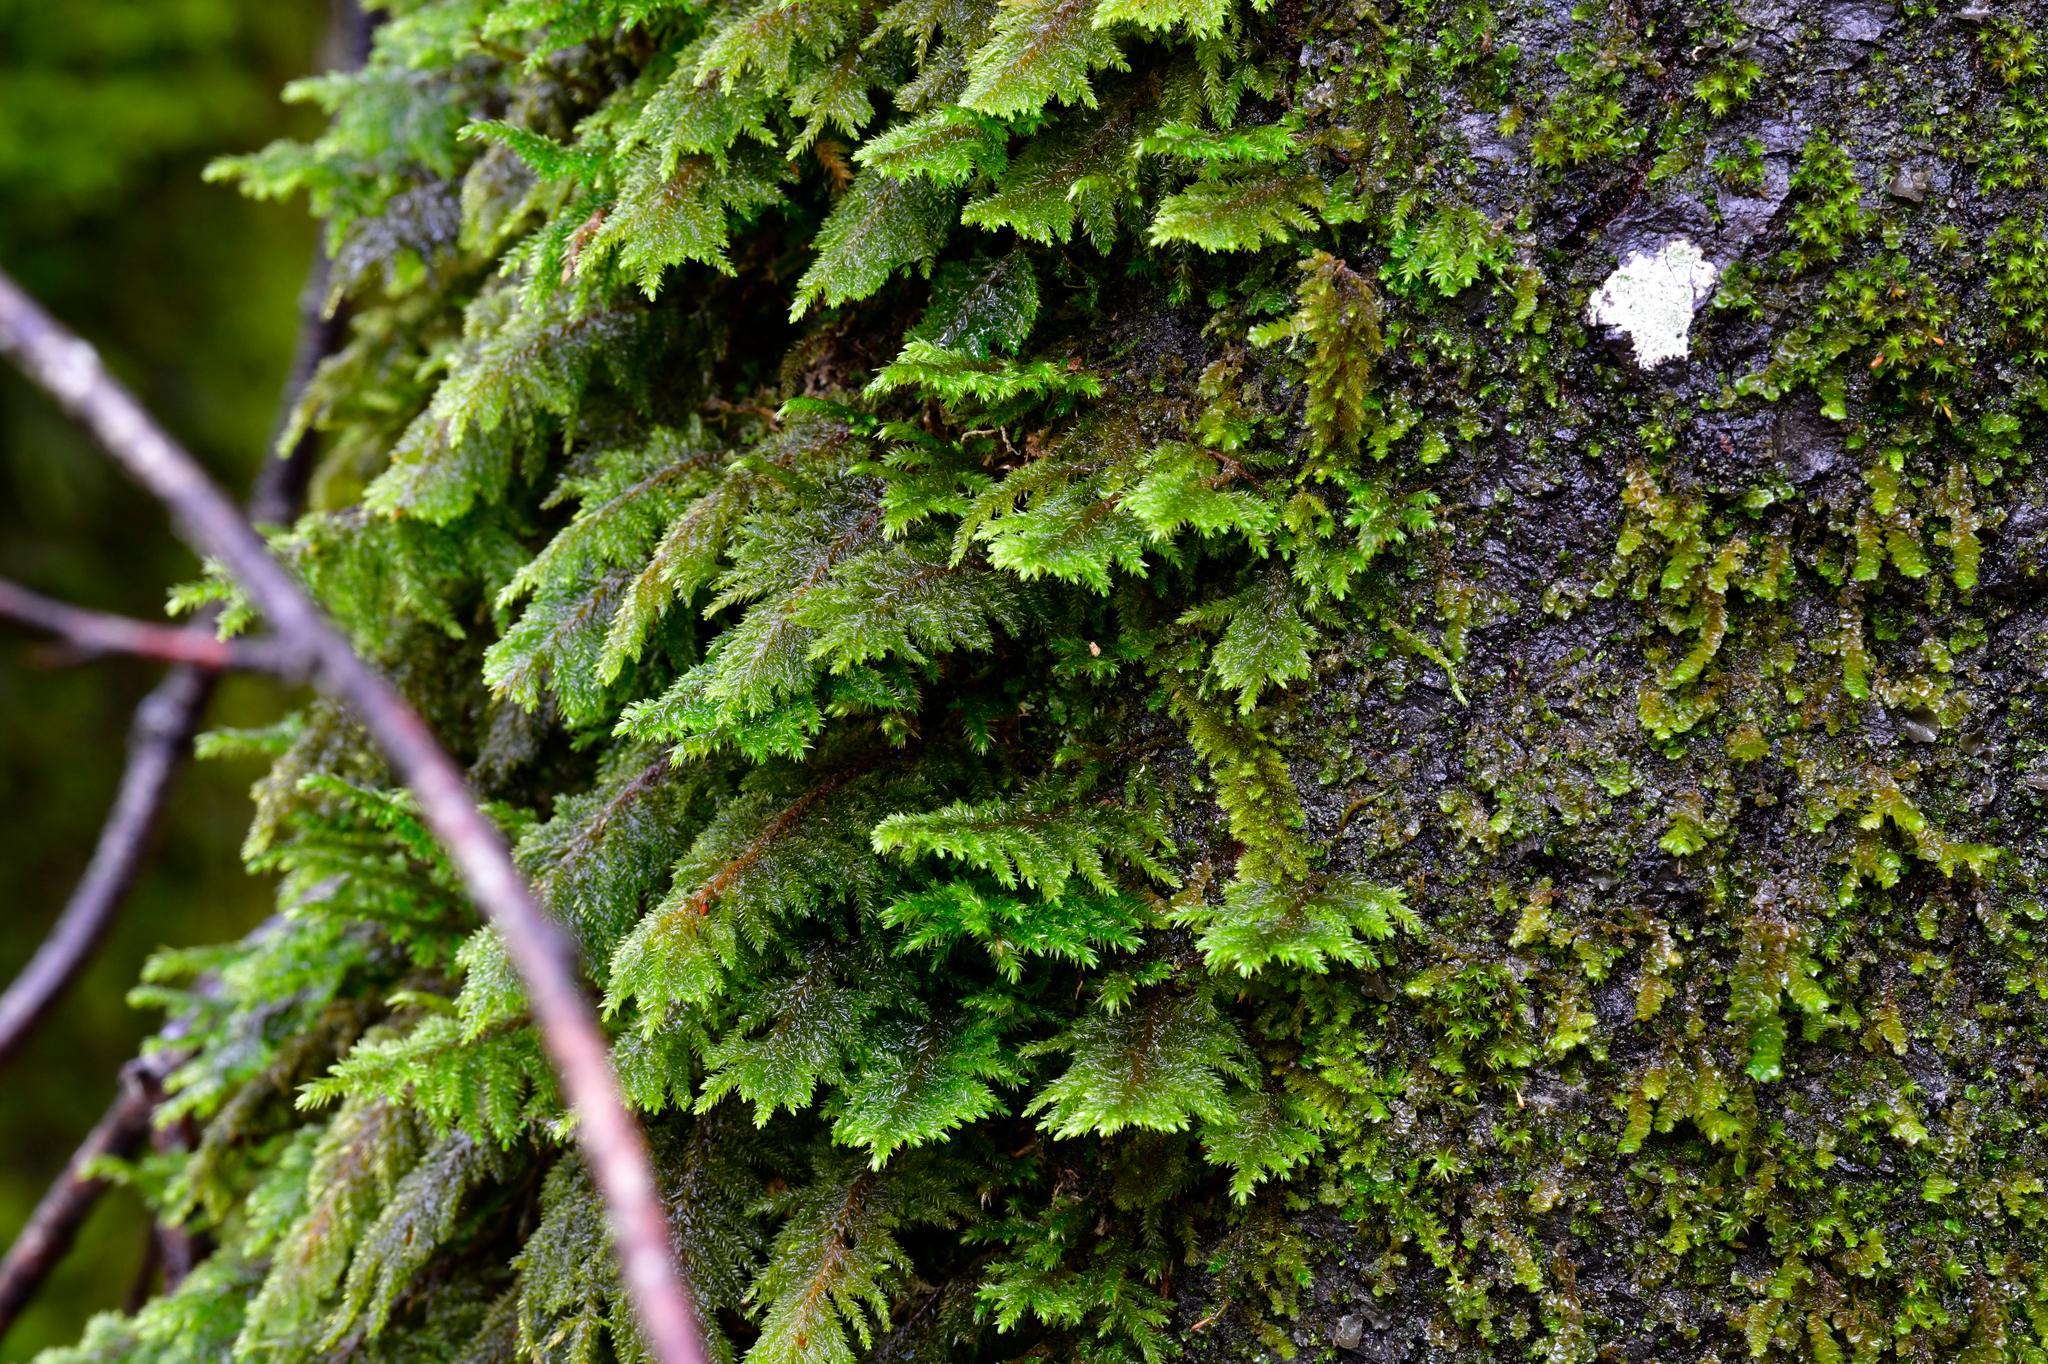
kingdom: Plantae
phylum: Bryophyta
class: Bryopsida
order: Hypnales
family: Cryphaeaceae
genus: Dendroalsia
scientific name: Dendroalsia abietina
